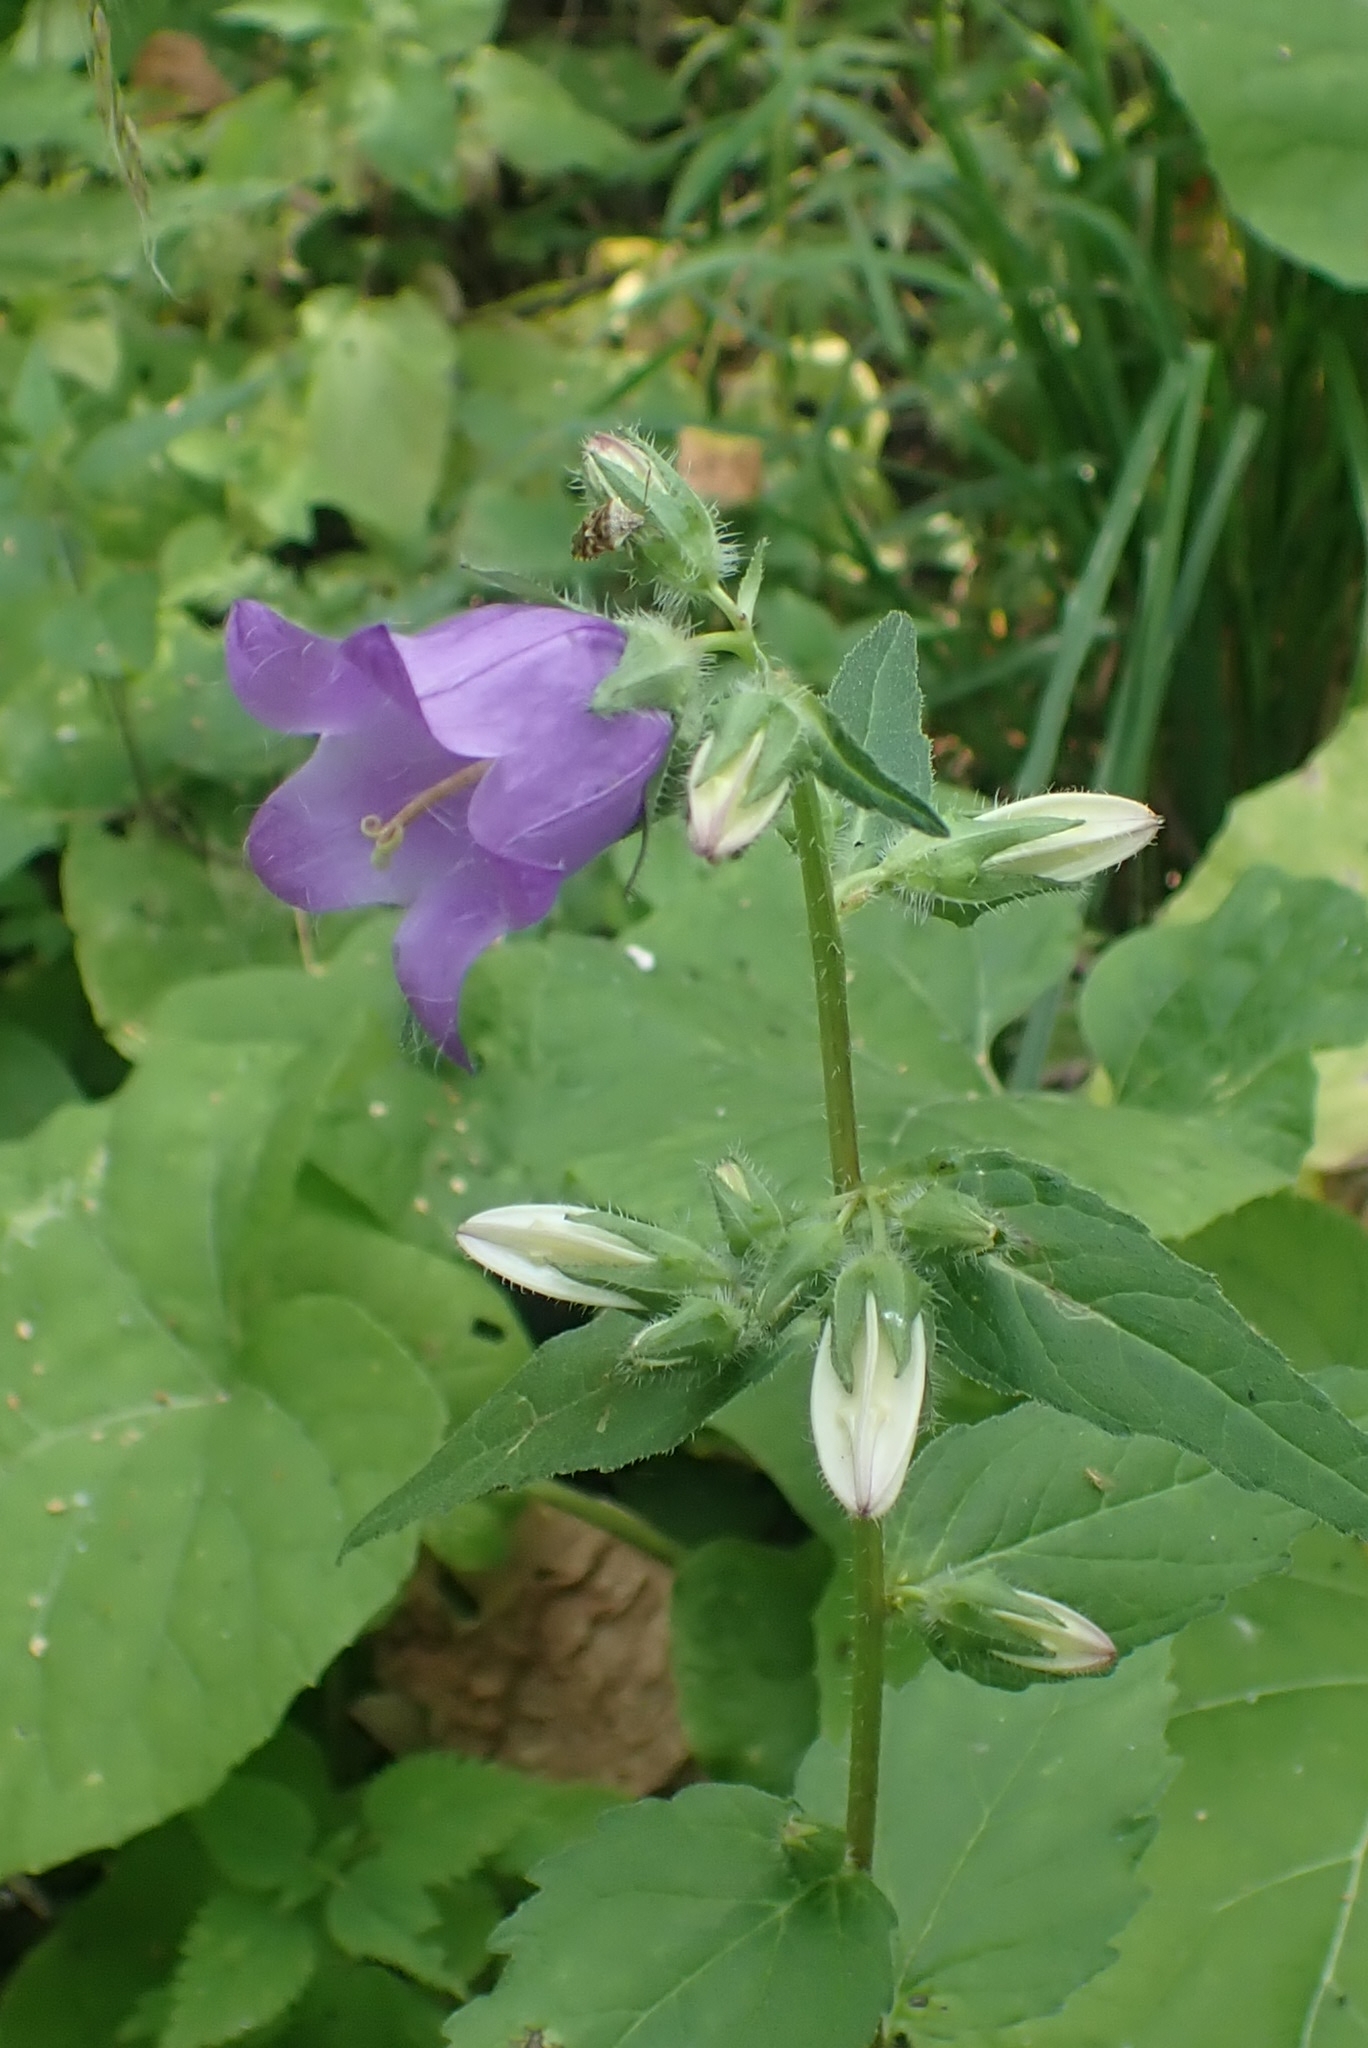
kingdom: Plantae
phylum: Tracheophyta
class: Magnoliopsida
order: Asterales
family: Campanulaceae
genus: Campanula
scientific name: Campanula trachelium
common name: Nettle-leaved bellflower
